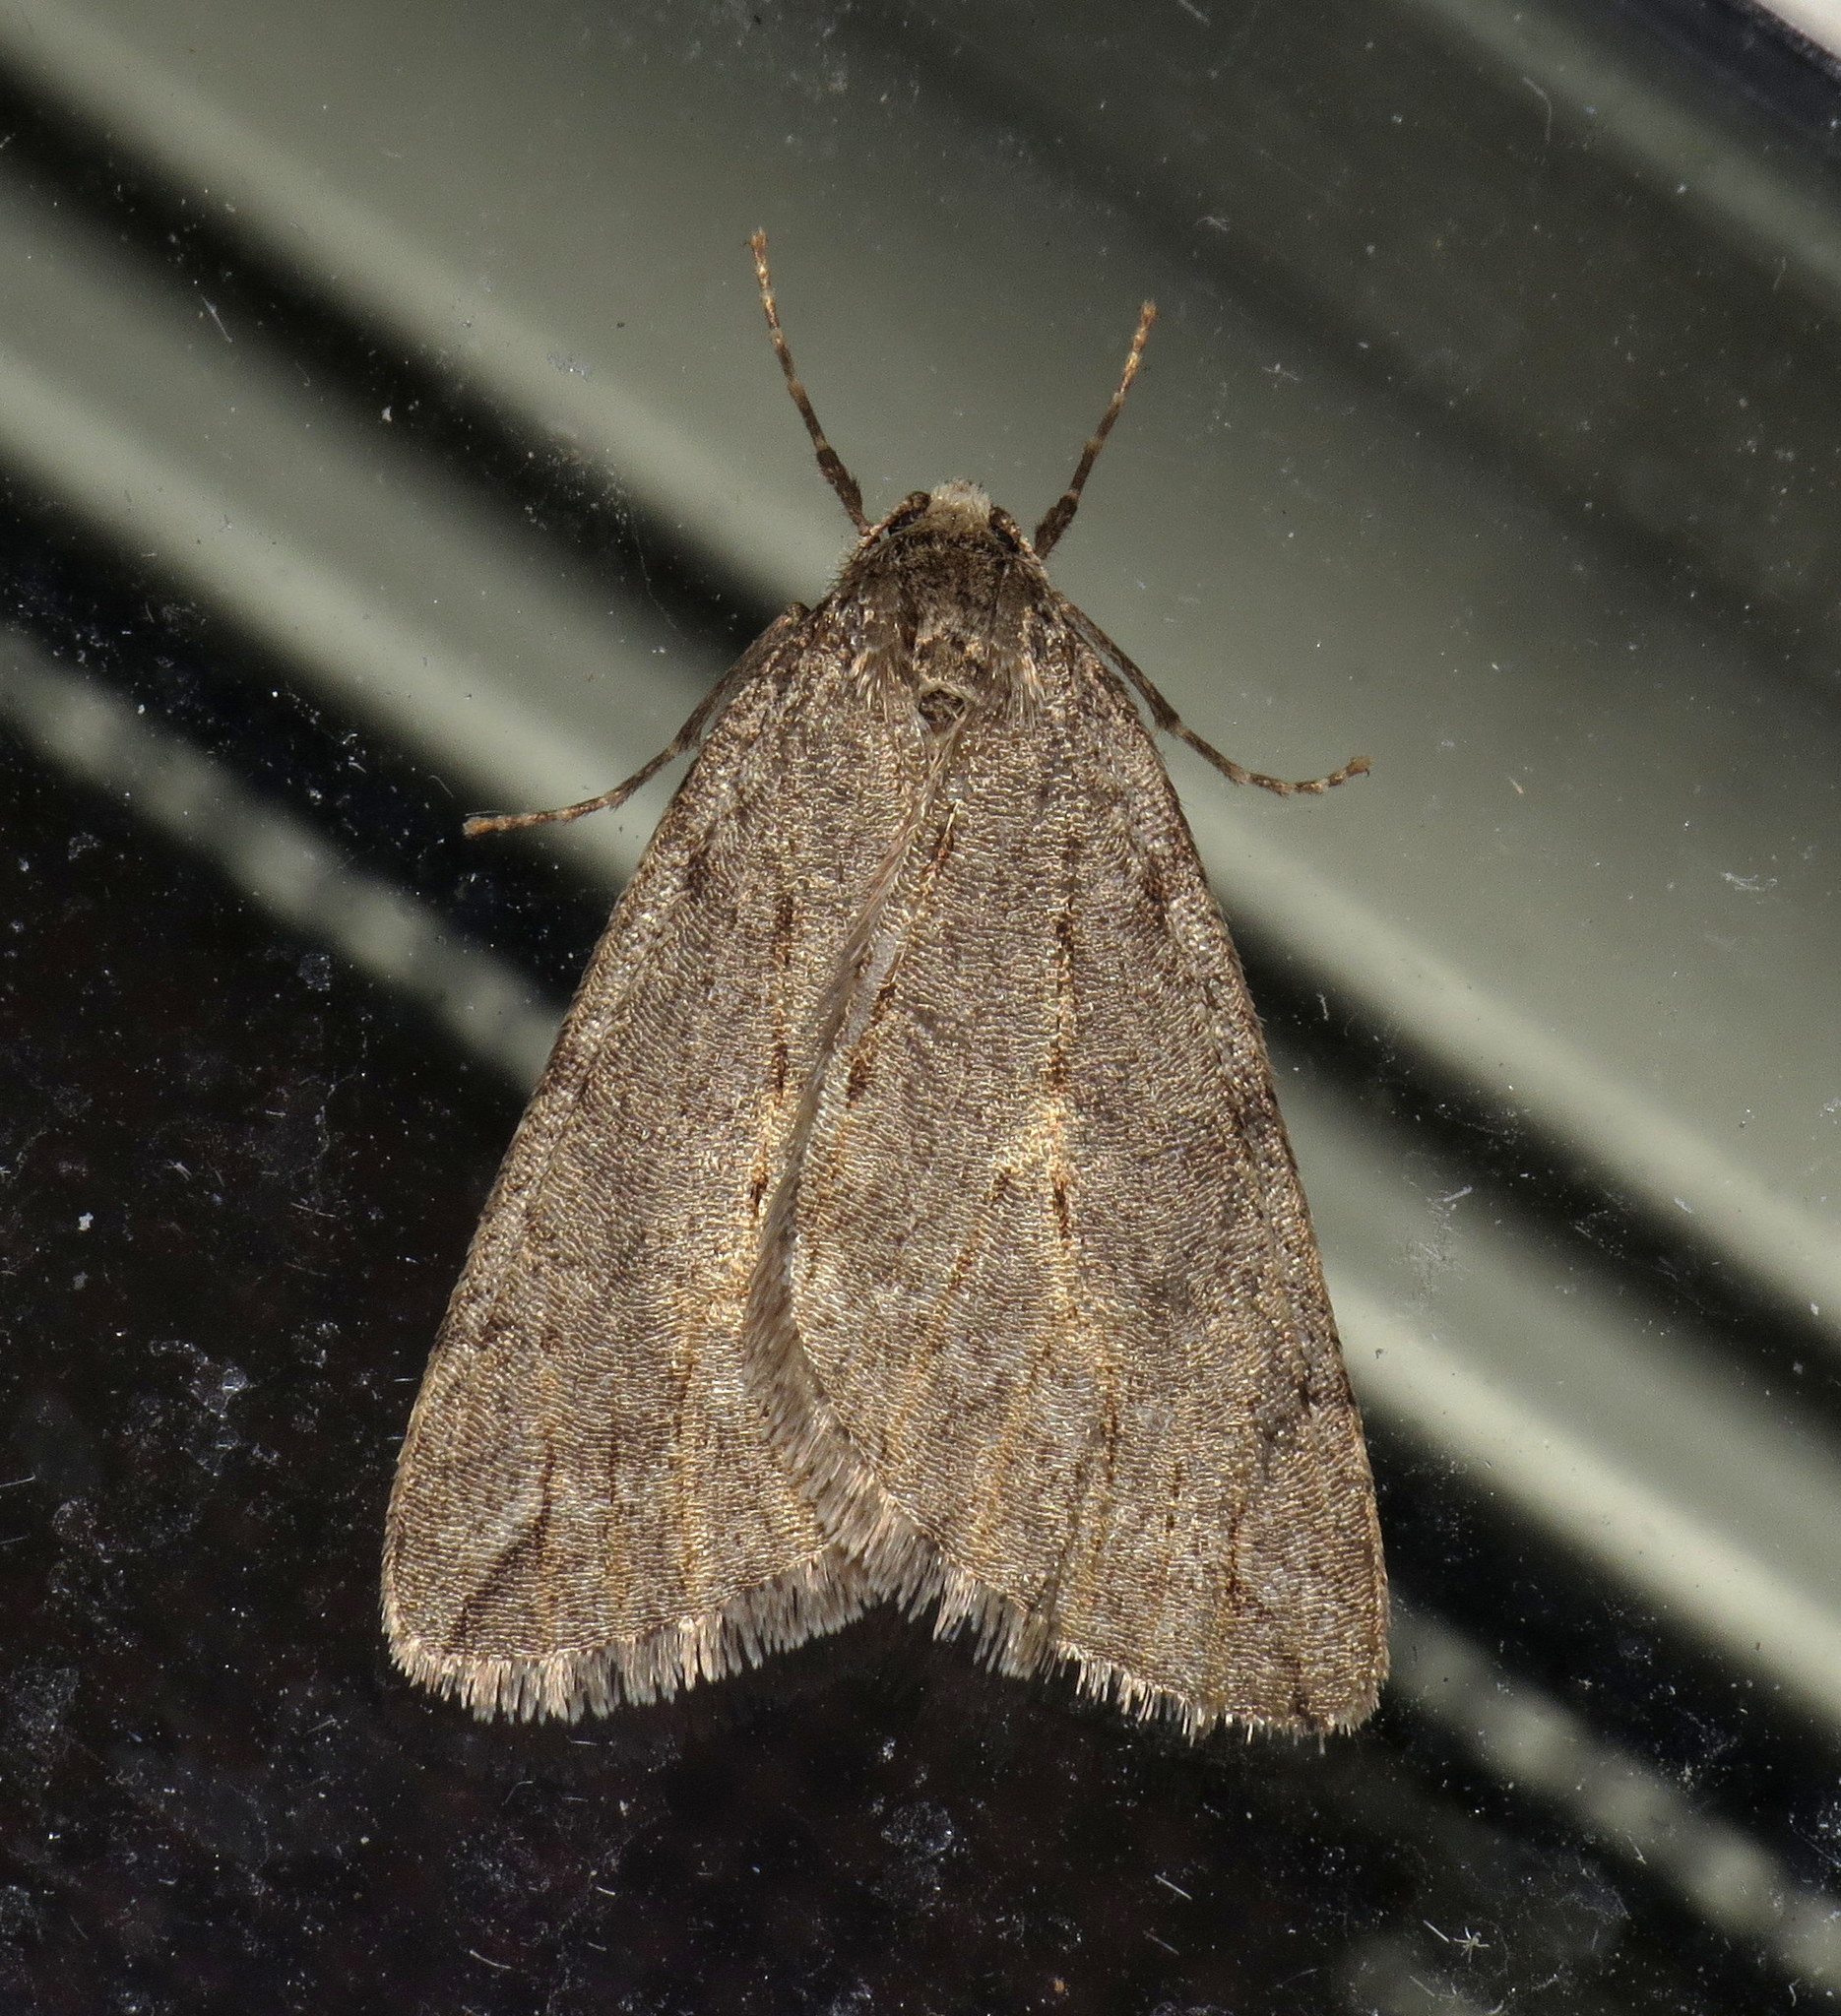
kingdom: Animalia
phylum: Arthropoda
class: Insecta
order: Lepidoptera
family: Geometridae
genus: Paleacrita
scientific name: Paleacrita vernata
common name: Spring cankerworm
